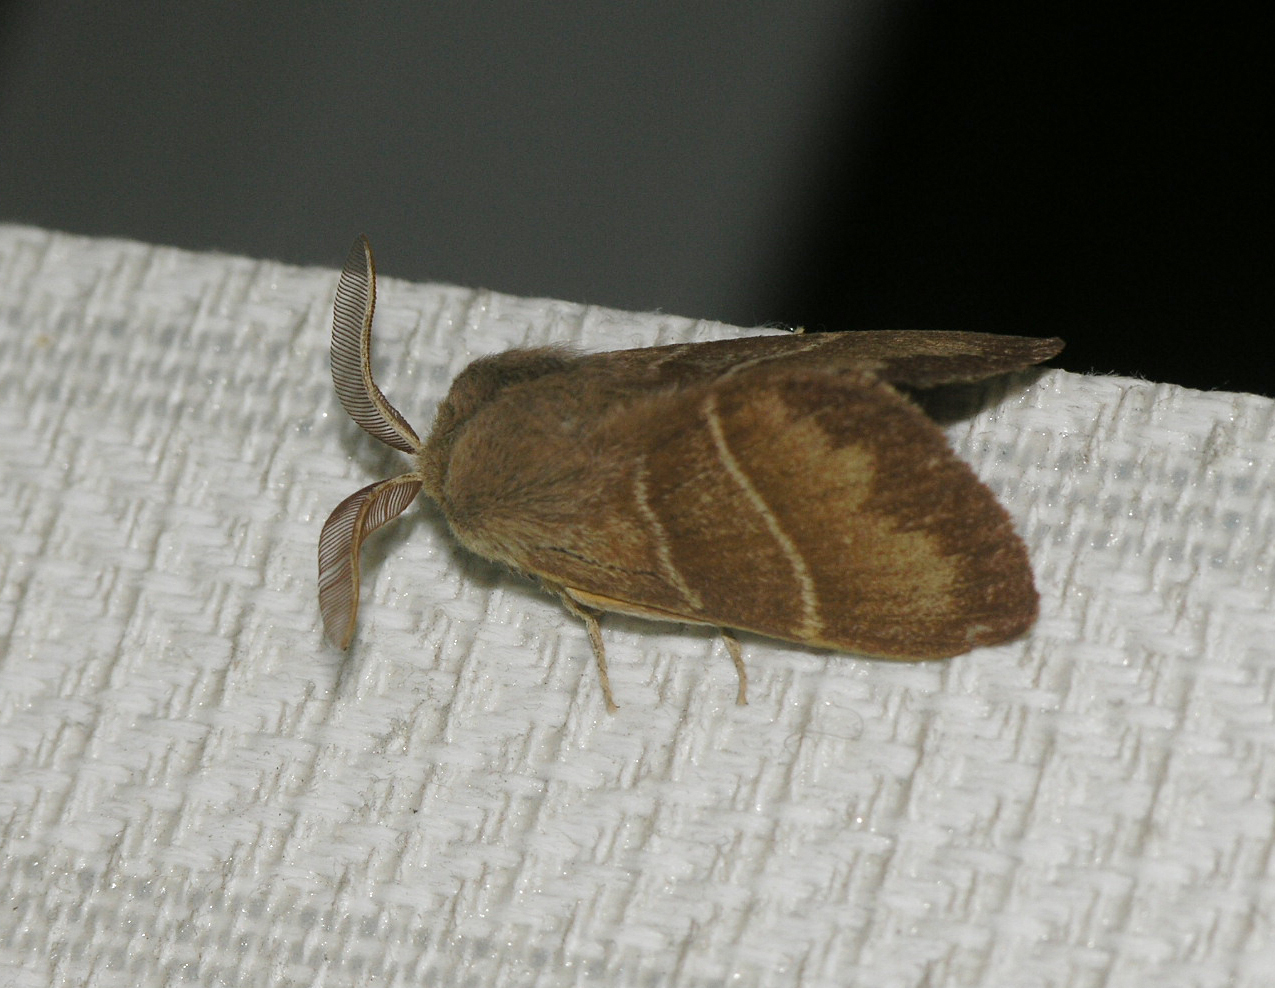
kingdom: Animalia
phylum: Arthropoda
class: Insecta
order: Lepidoptera
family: Lasiocampidae
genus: Macrothylacia
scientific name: Macrothylacia rubi
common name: Fox moth
